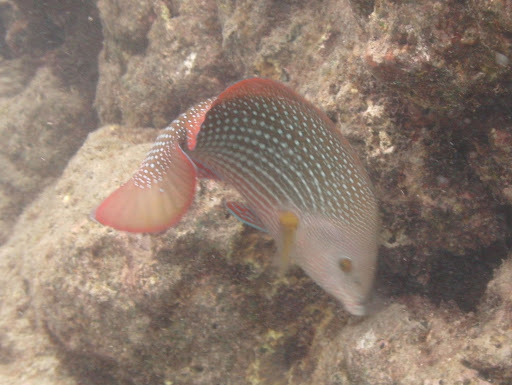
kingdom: Animalia
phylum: Chordata
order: Perciformes
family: Labridae
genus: Anampses
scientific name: Anampses cuvier
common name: Pearl wrasse
